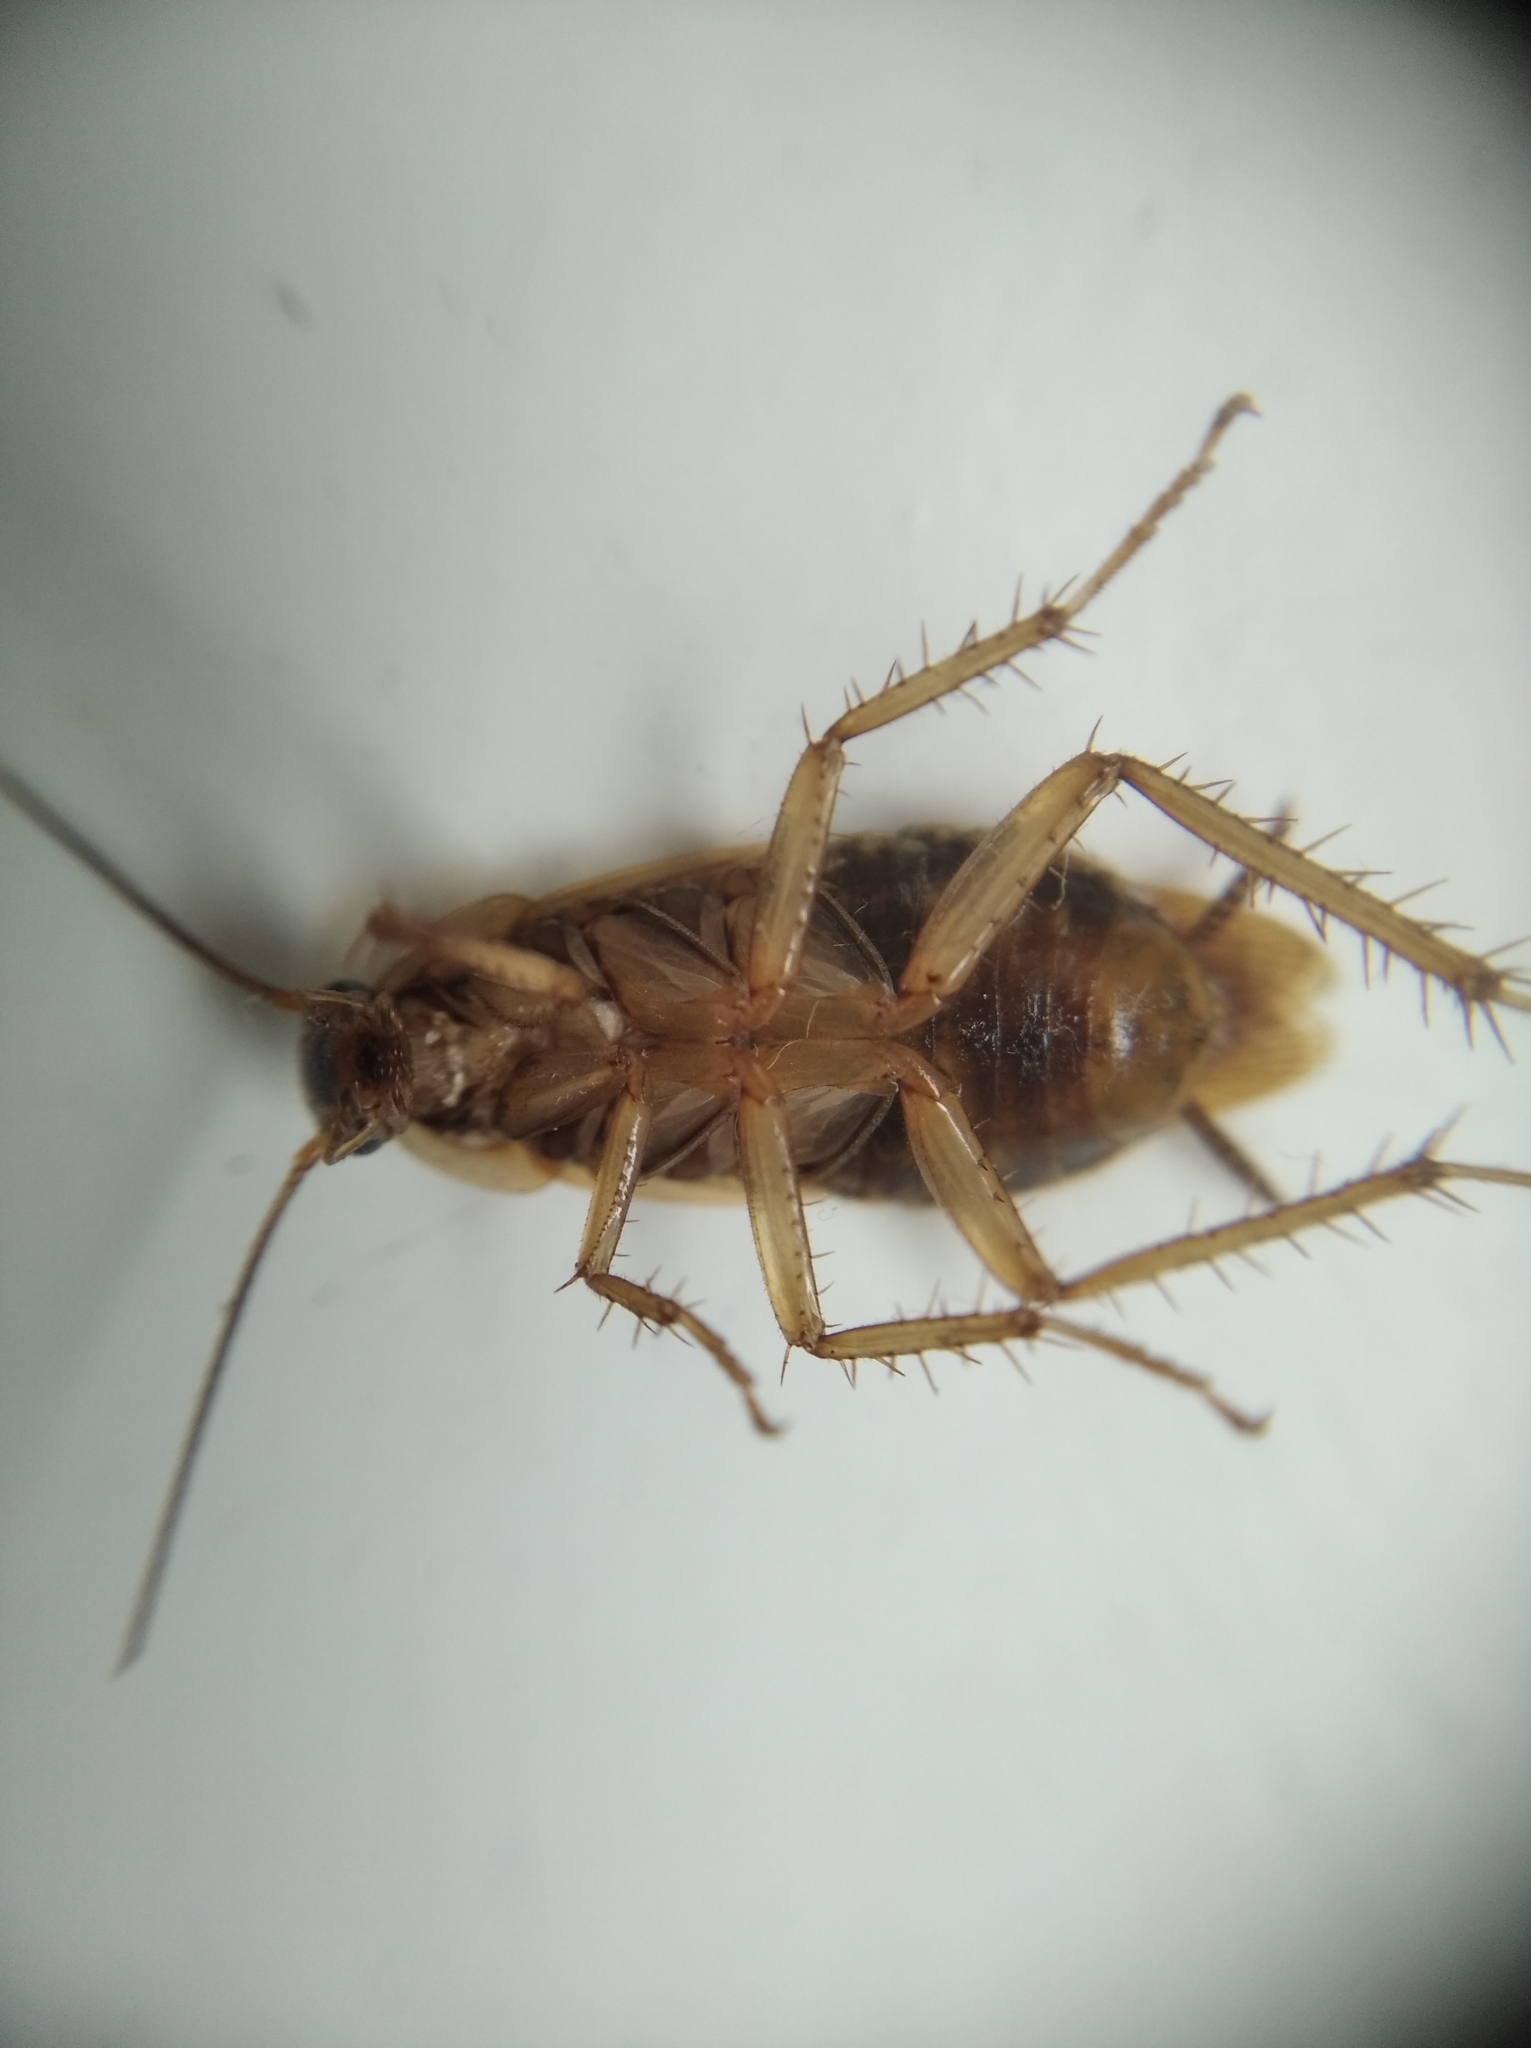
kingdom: Animalia
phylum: Arthropoda
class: Insecta
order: Blattodea
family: Ectobiidae
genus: Blattella
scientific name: Blattella germanica
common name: German cockroach
